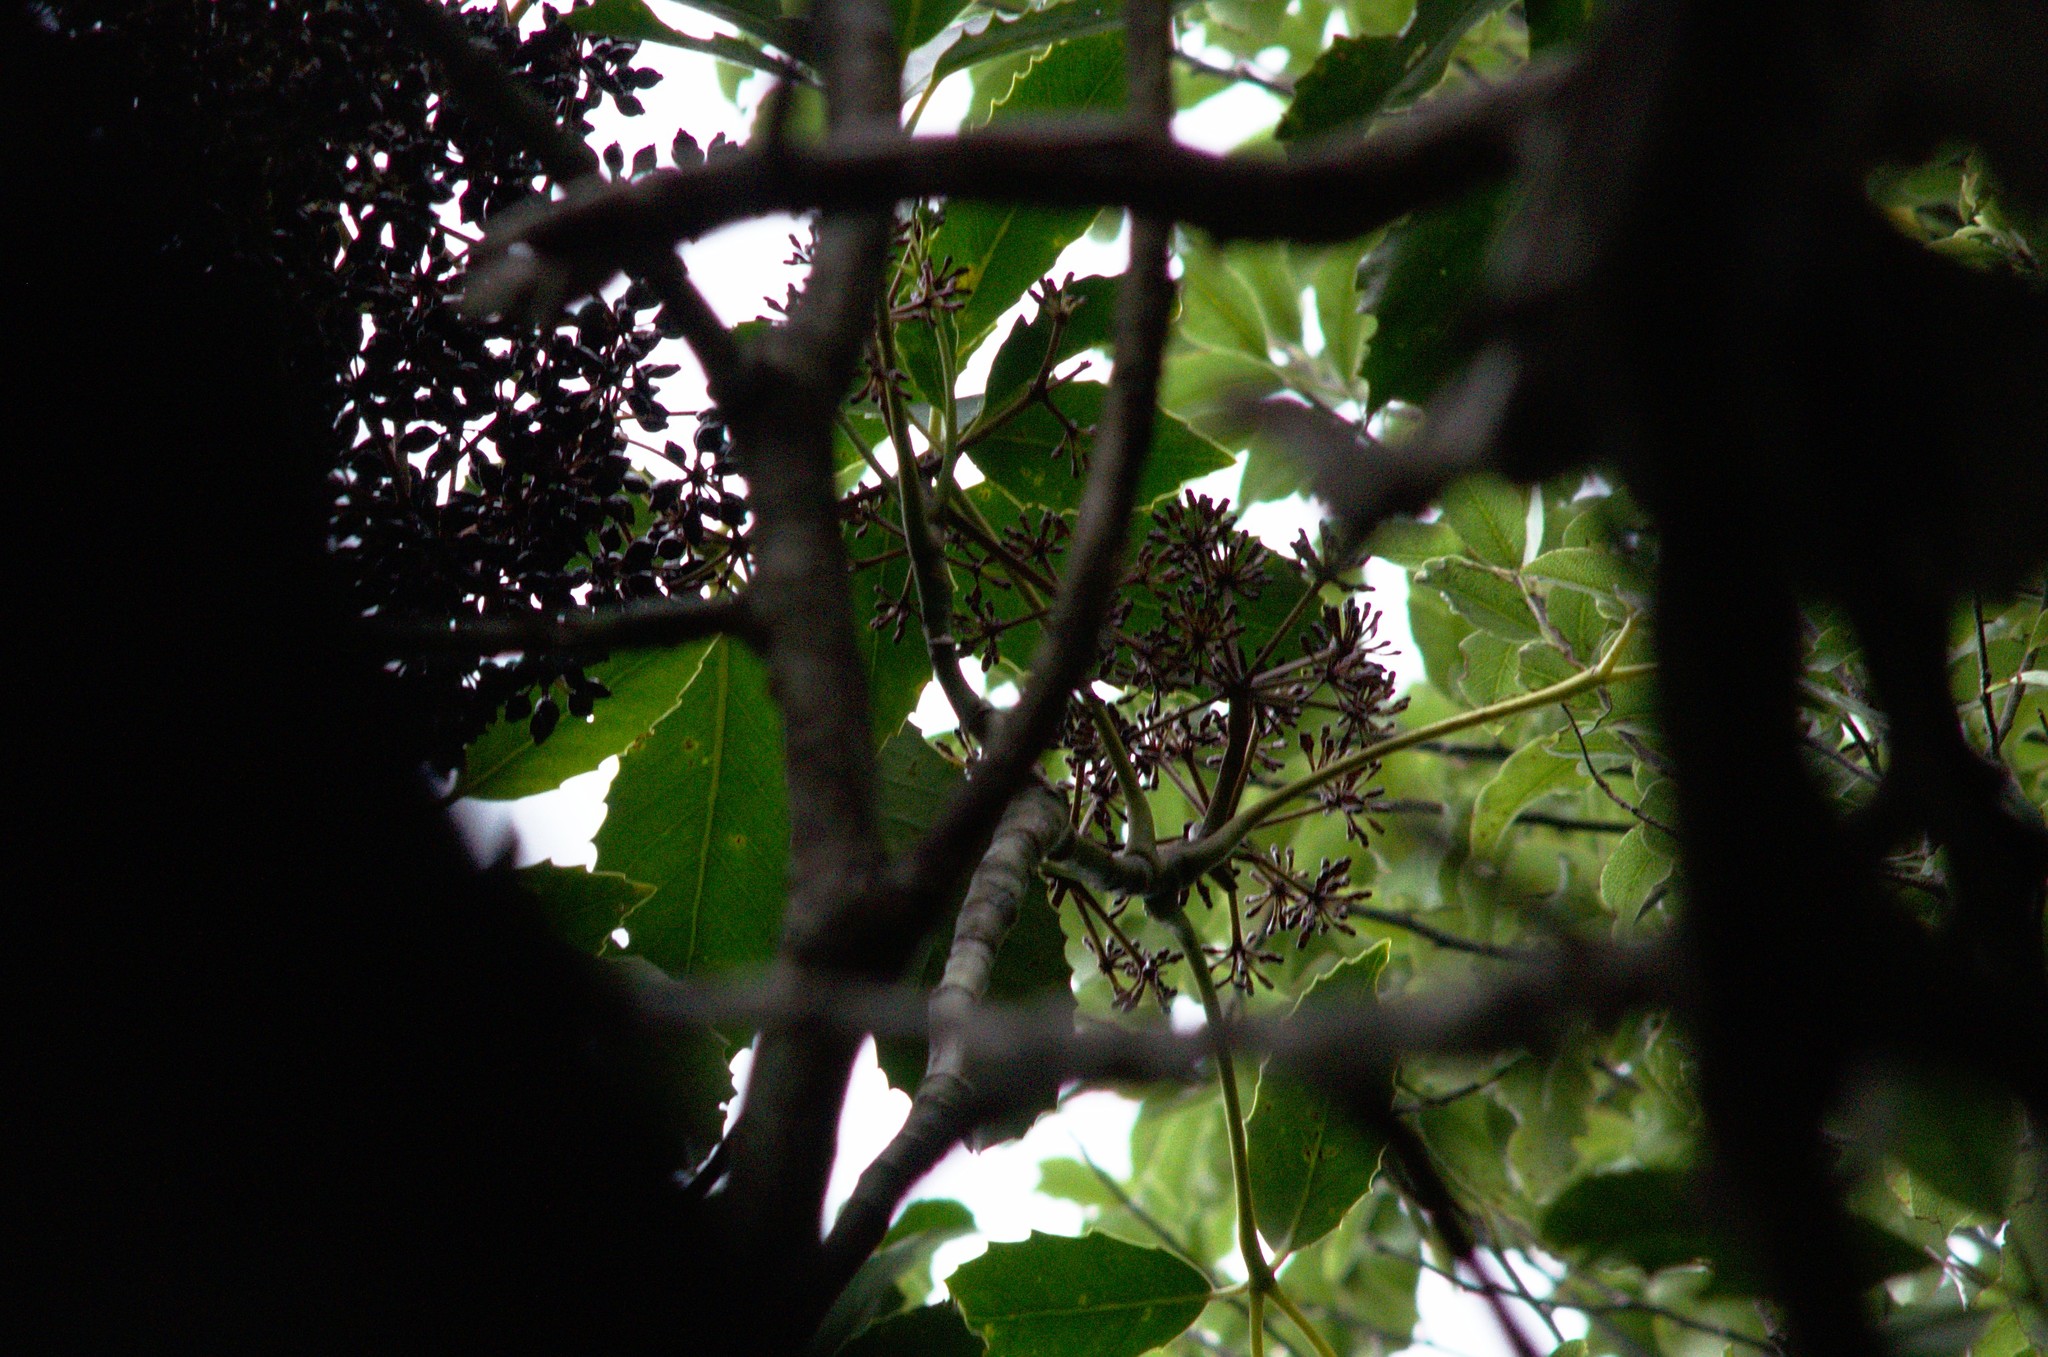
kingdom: Plantae
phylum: Tracheophyta
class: Magnoliopsida
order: Apiales
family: Araliaceae
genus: Neopanax
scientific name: Neopanax arboreus
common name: Five-fingers
